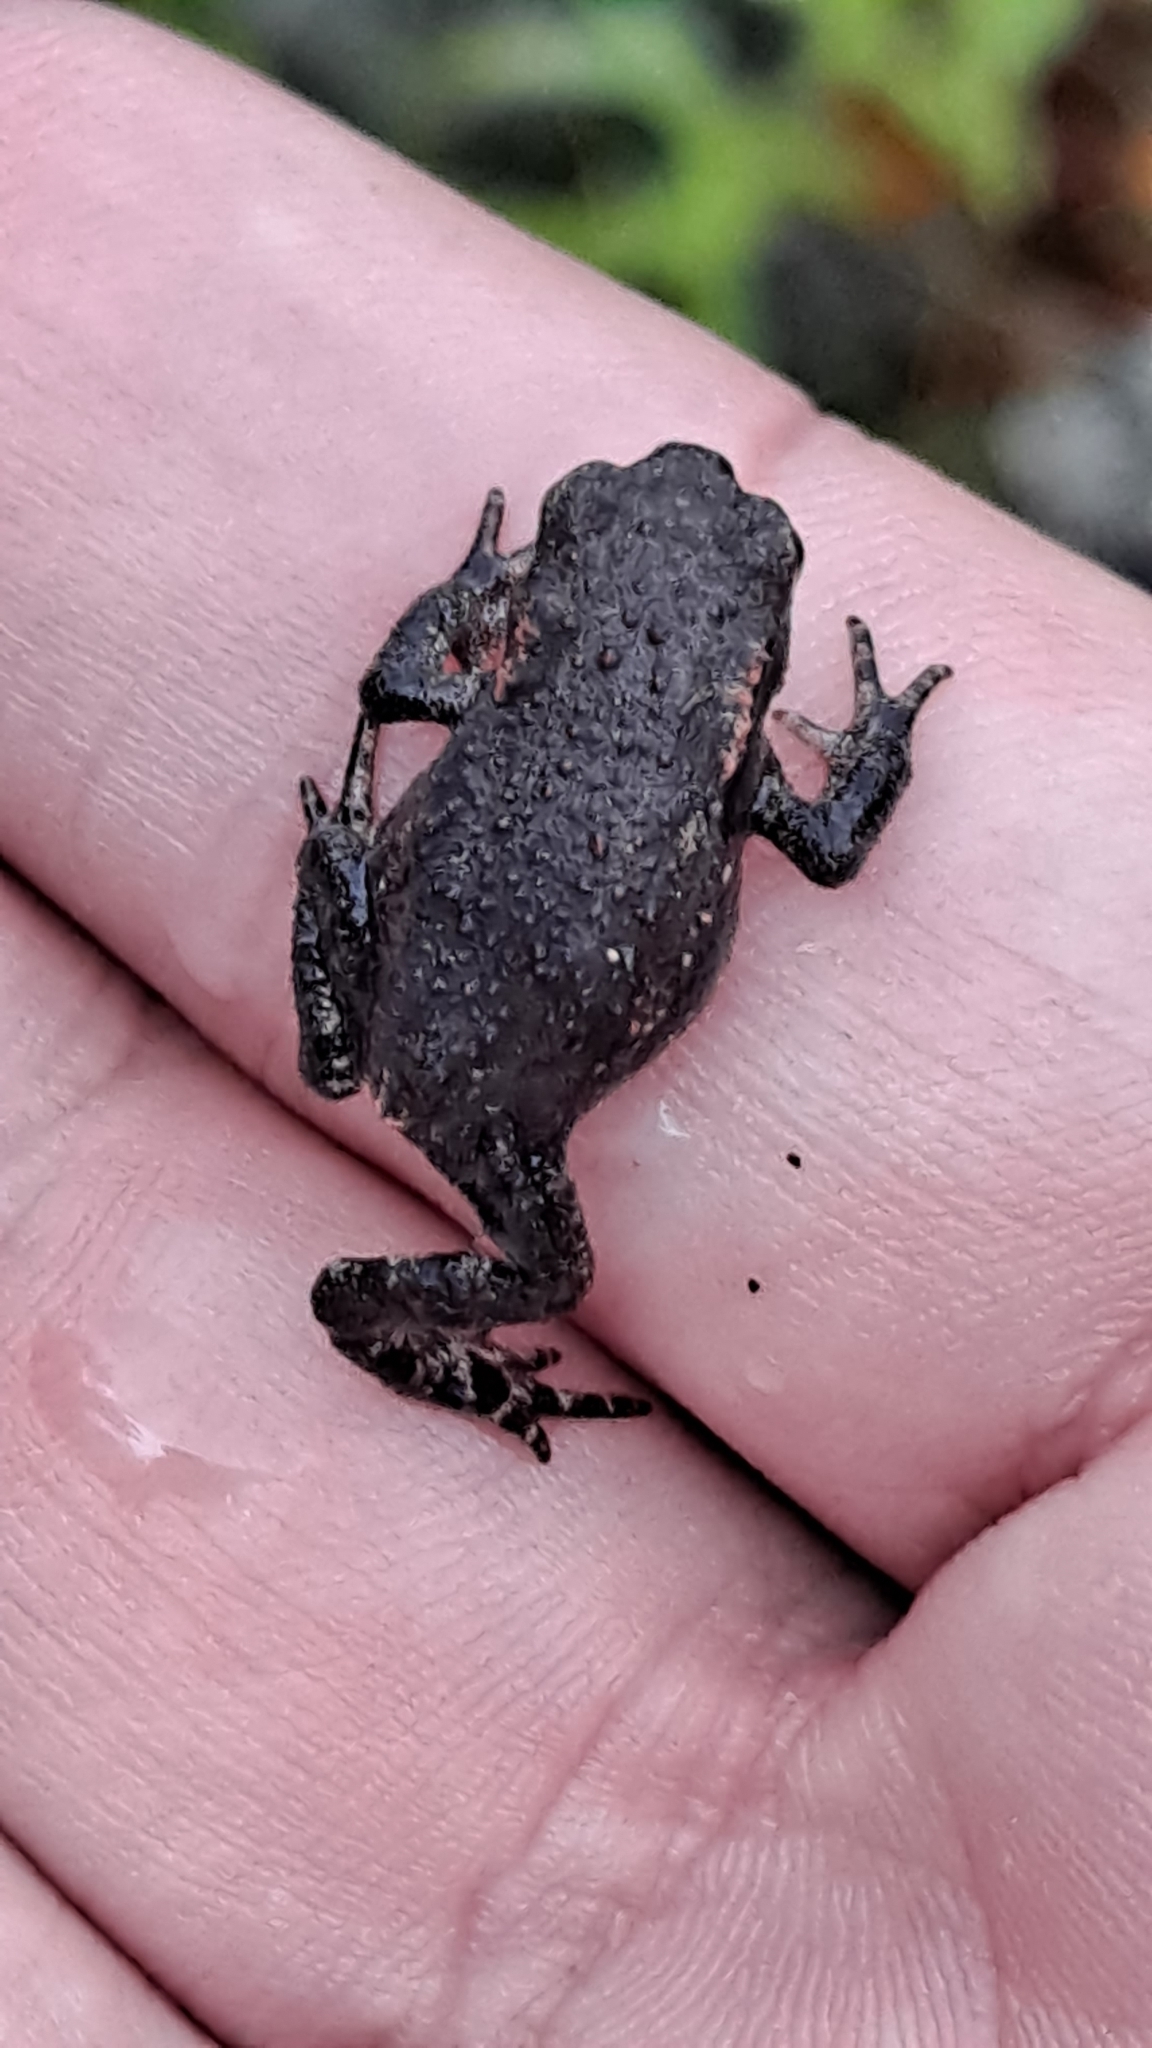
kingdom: Animalia
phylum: Chordata
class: Amphibia
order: Anura
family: Bufonidae
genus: Bufo
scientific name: Bufo spinosus
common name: Western common toad
